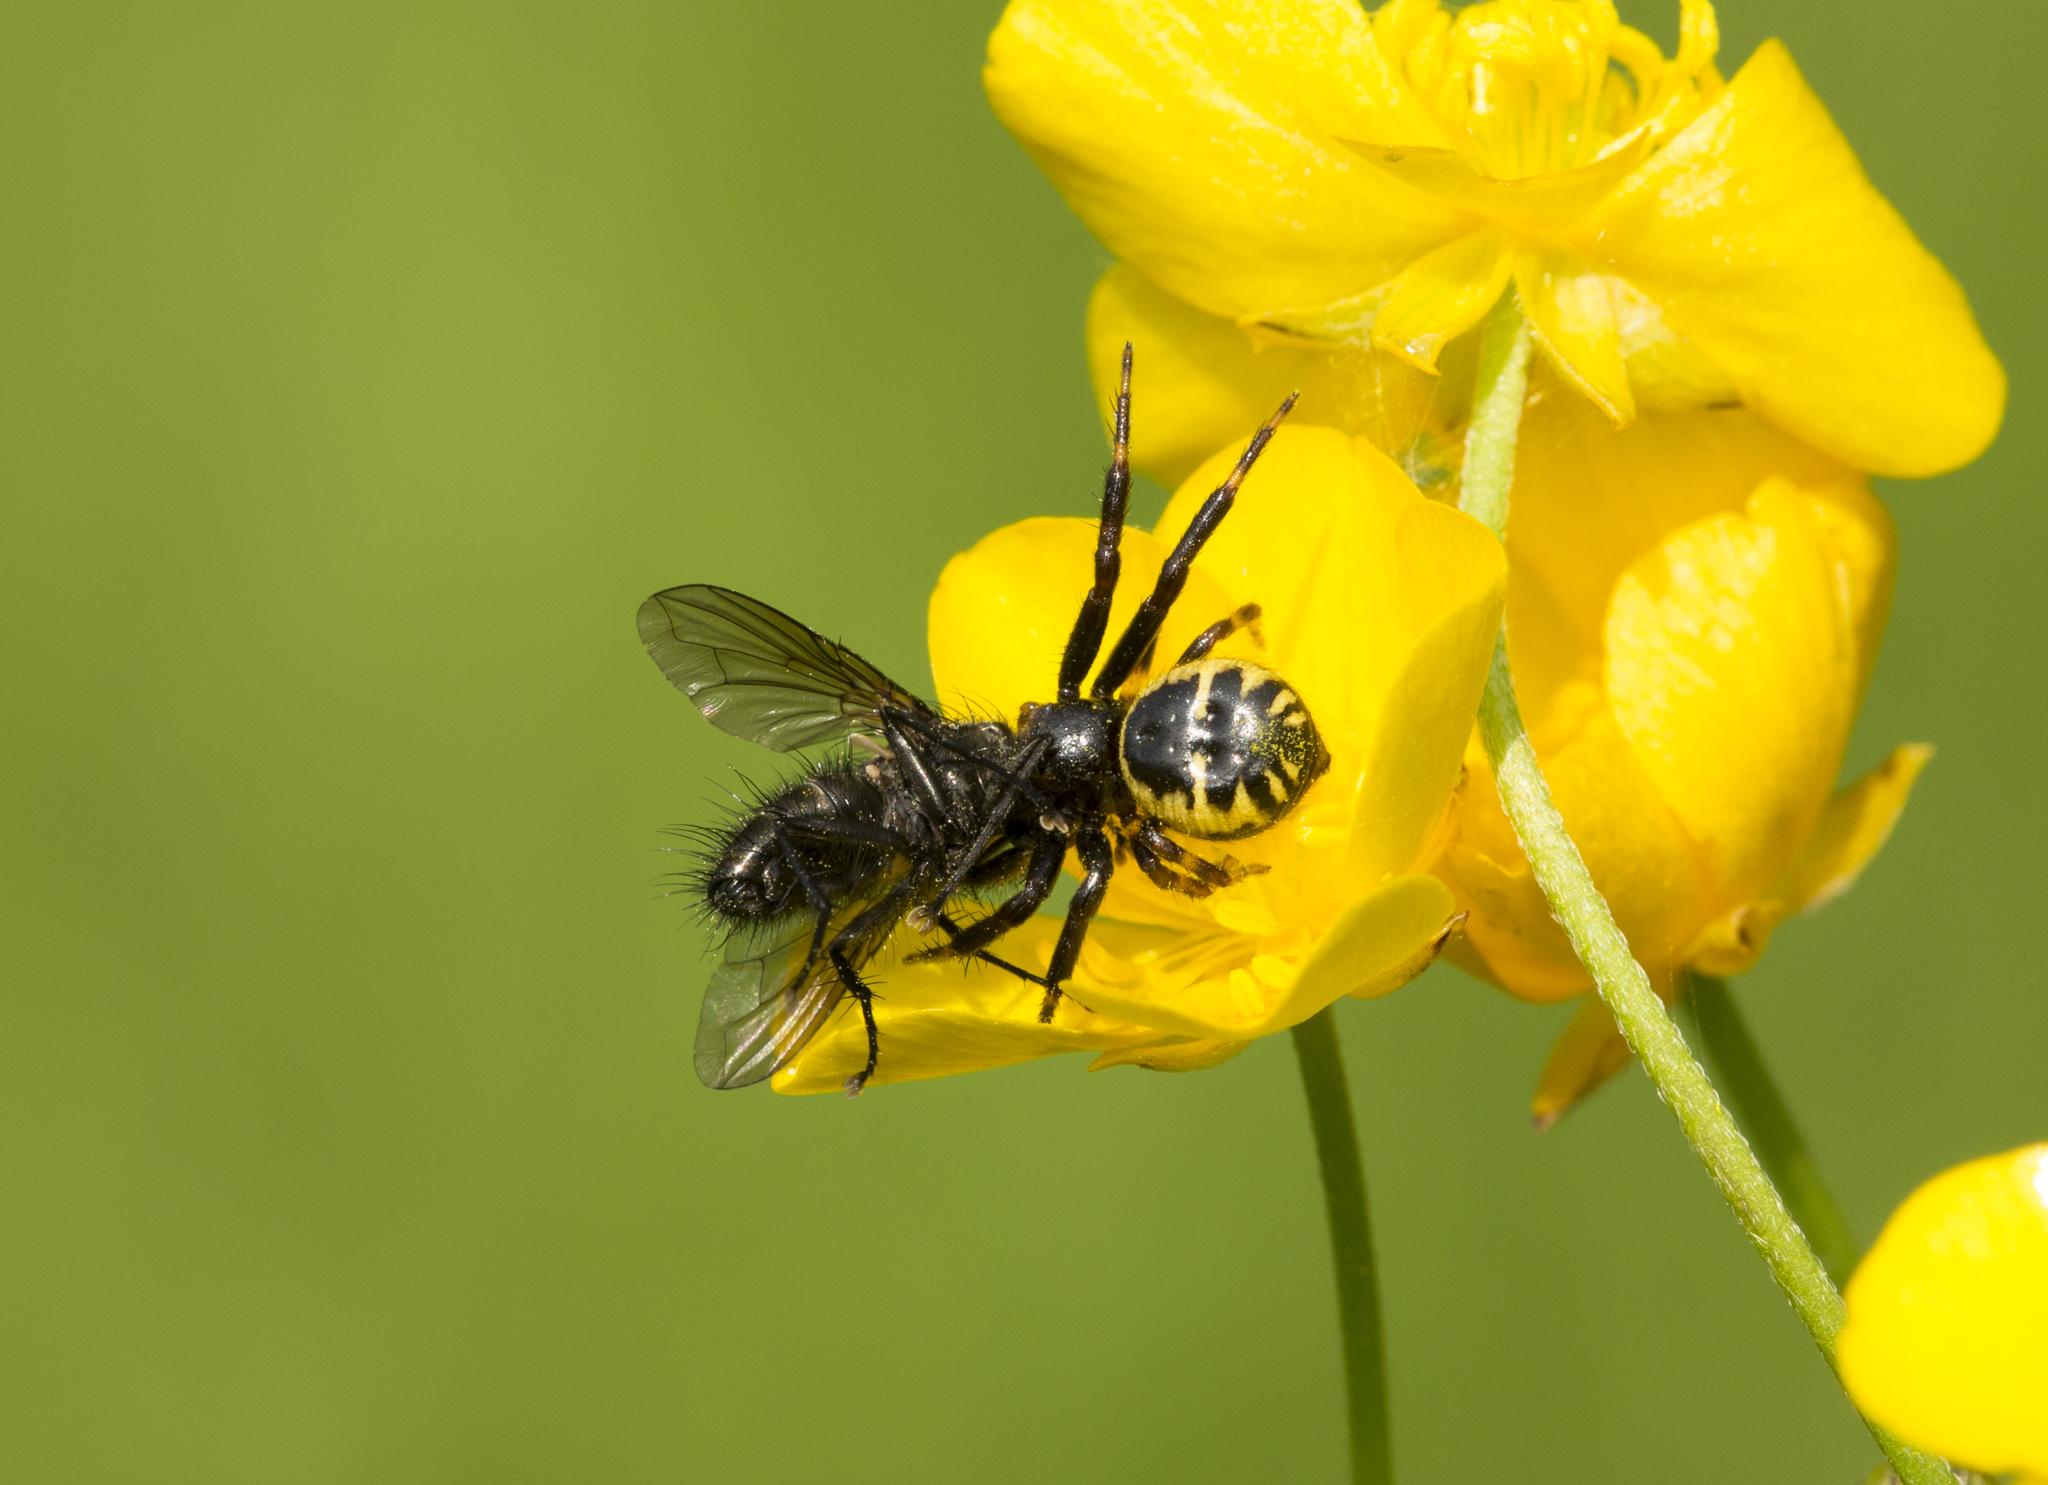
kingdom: Animalia
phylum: Arthropoda
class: Arachnida
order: Araneae
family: Thomisidae
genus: Synema
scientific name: Synema globosum
